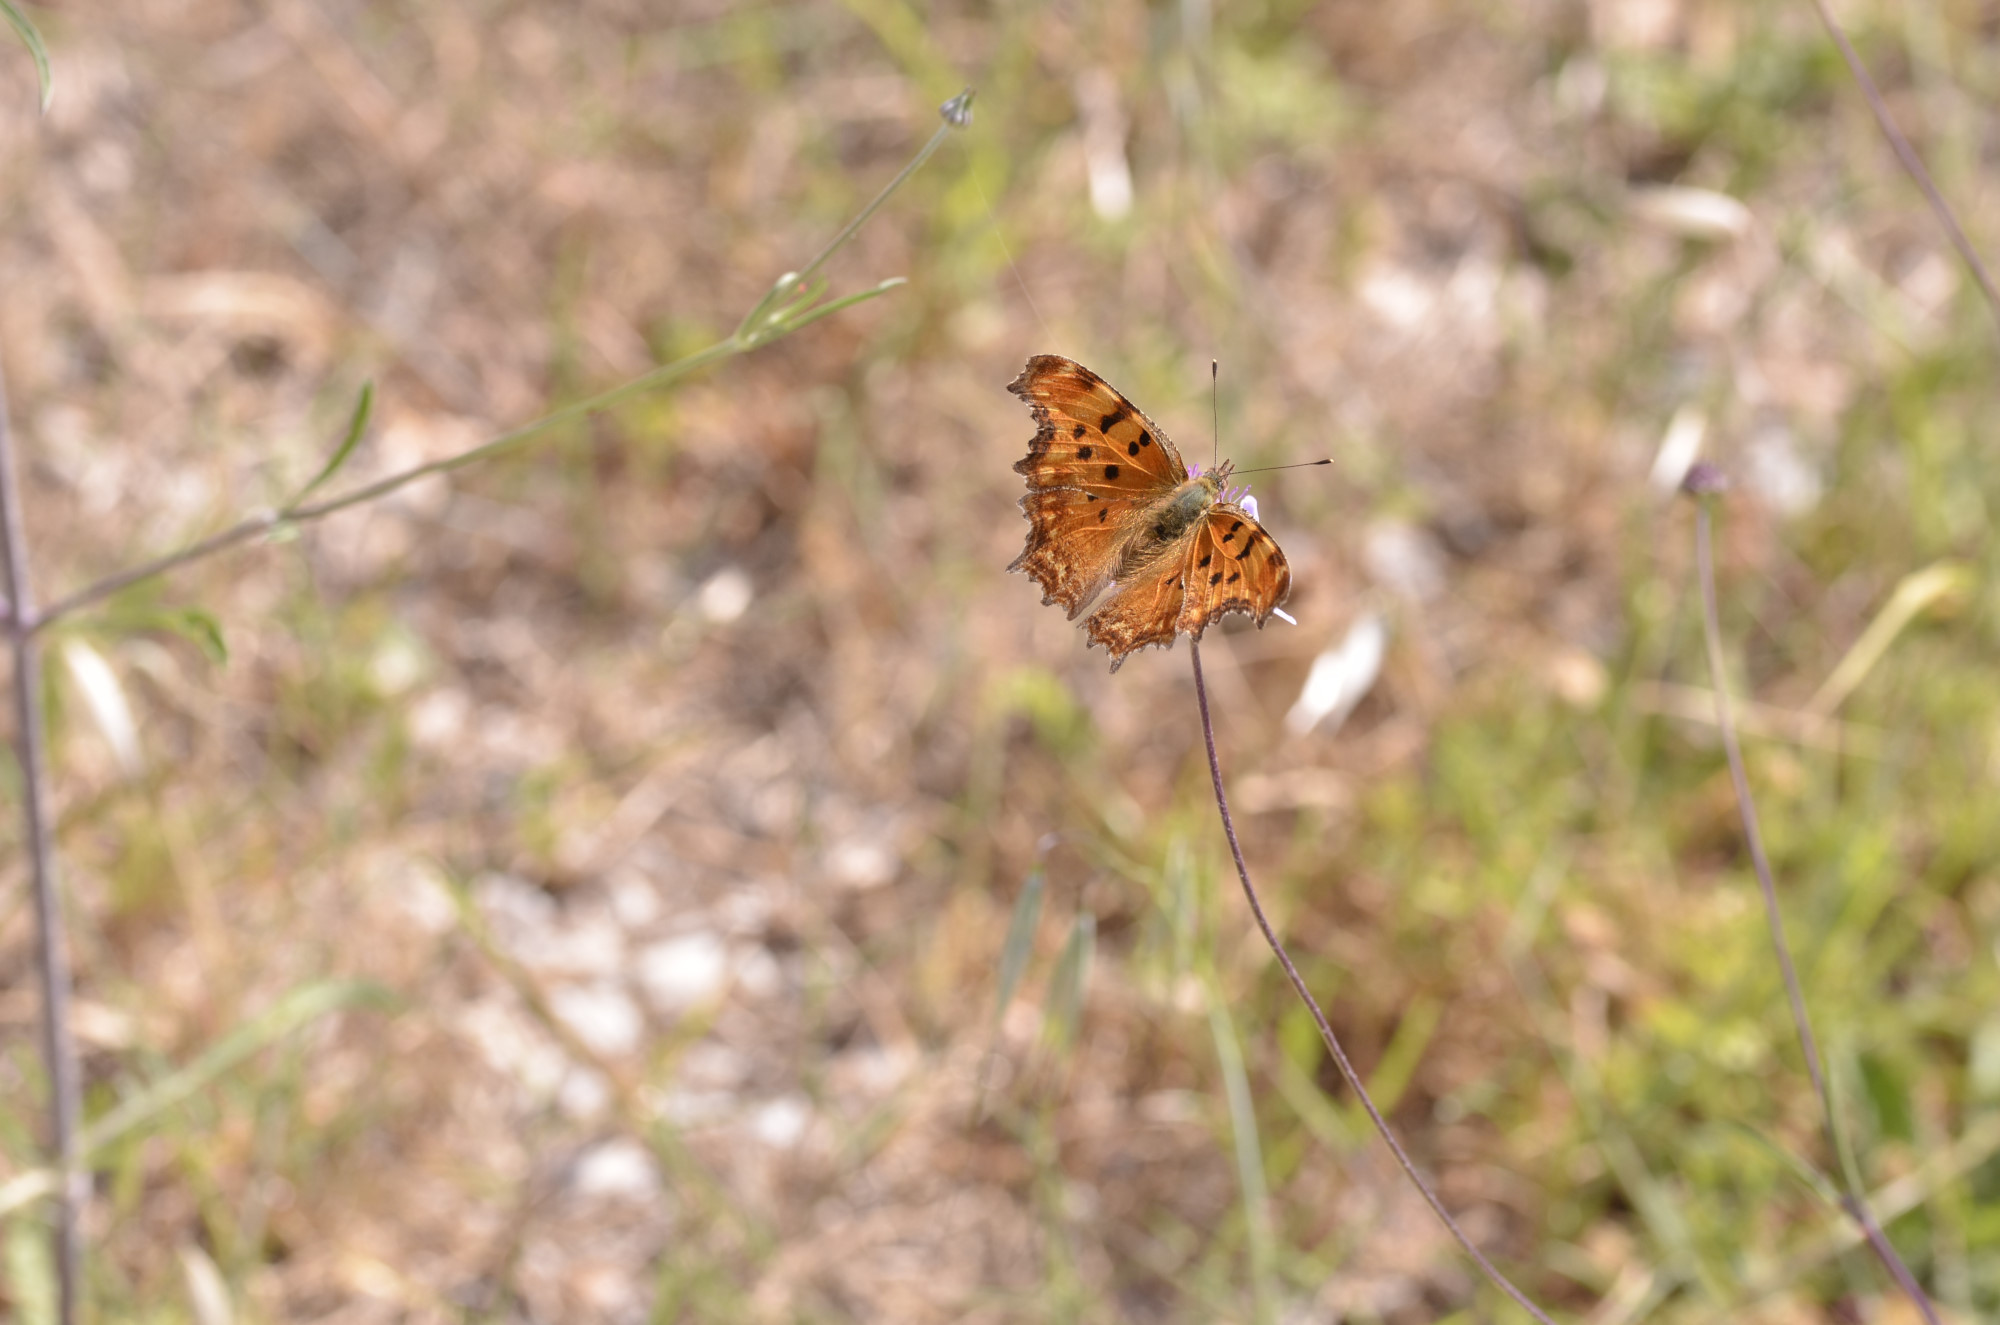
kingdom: Animalia
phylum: Arthropoda
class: Insecta
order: Lepidoptera
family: Nymphalidae
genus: Polygonia
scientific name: Polygonia egea
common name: Southern comma
